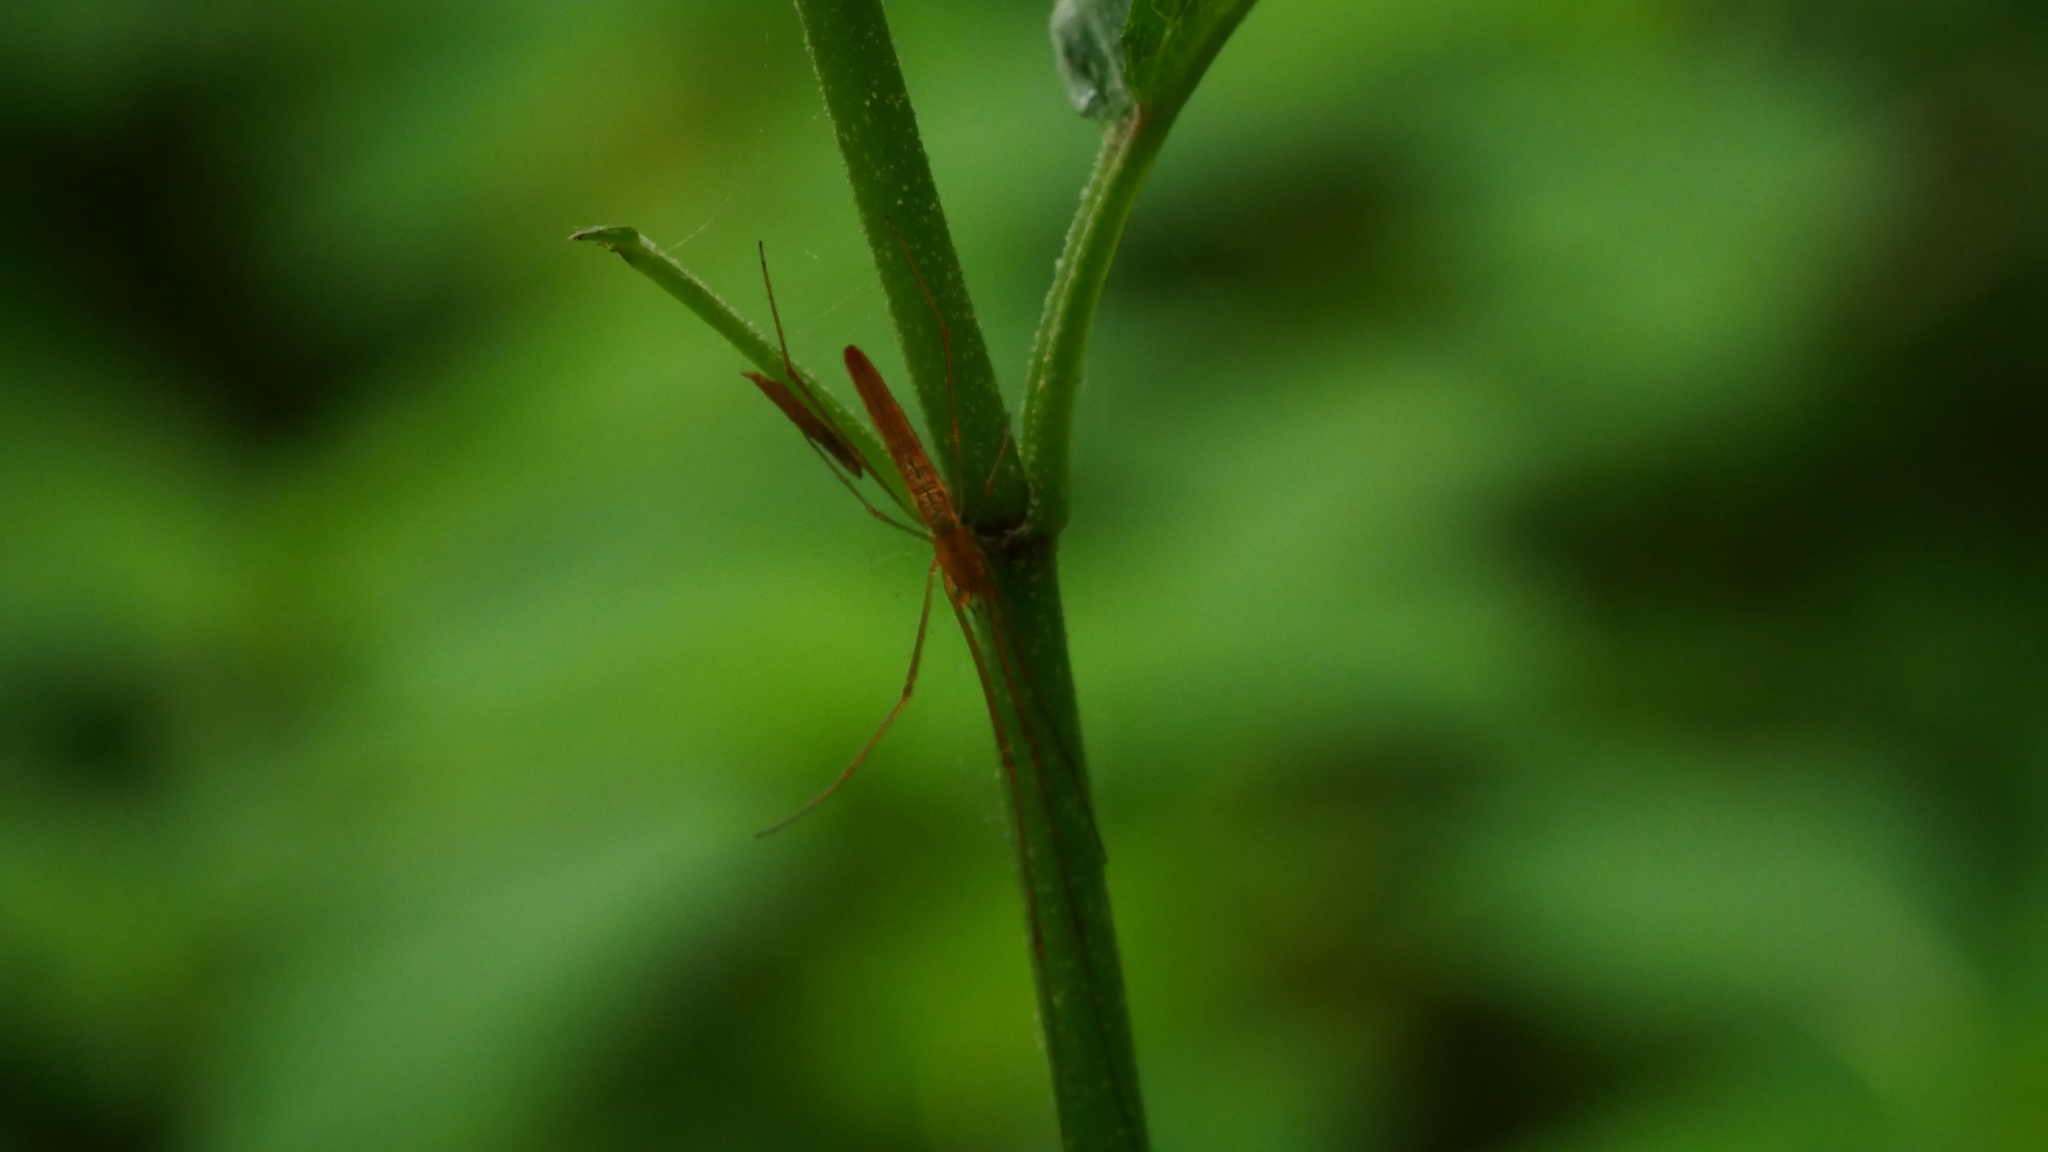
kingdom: Animalia
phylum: Arthropoda
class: Arachnida
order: Araneae
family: Tetragnathidae
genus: Tetragnatha
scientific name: Tetragnatha
